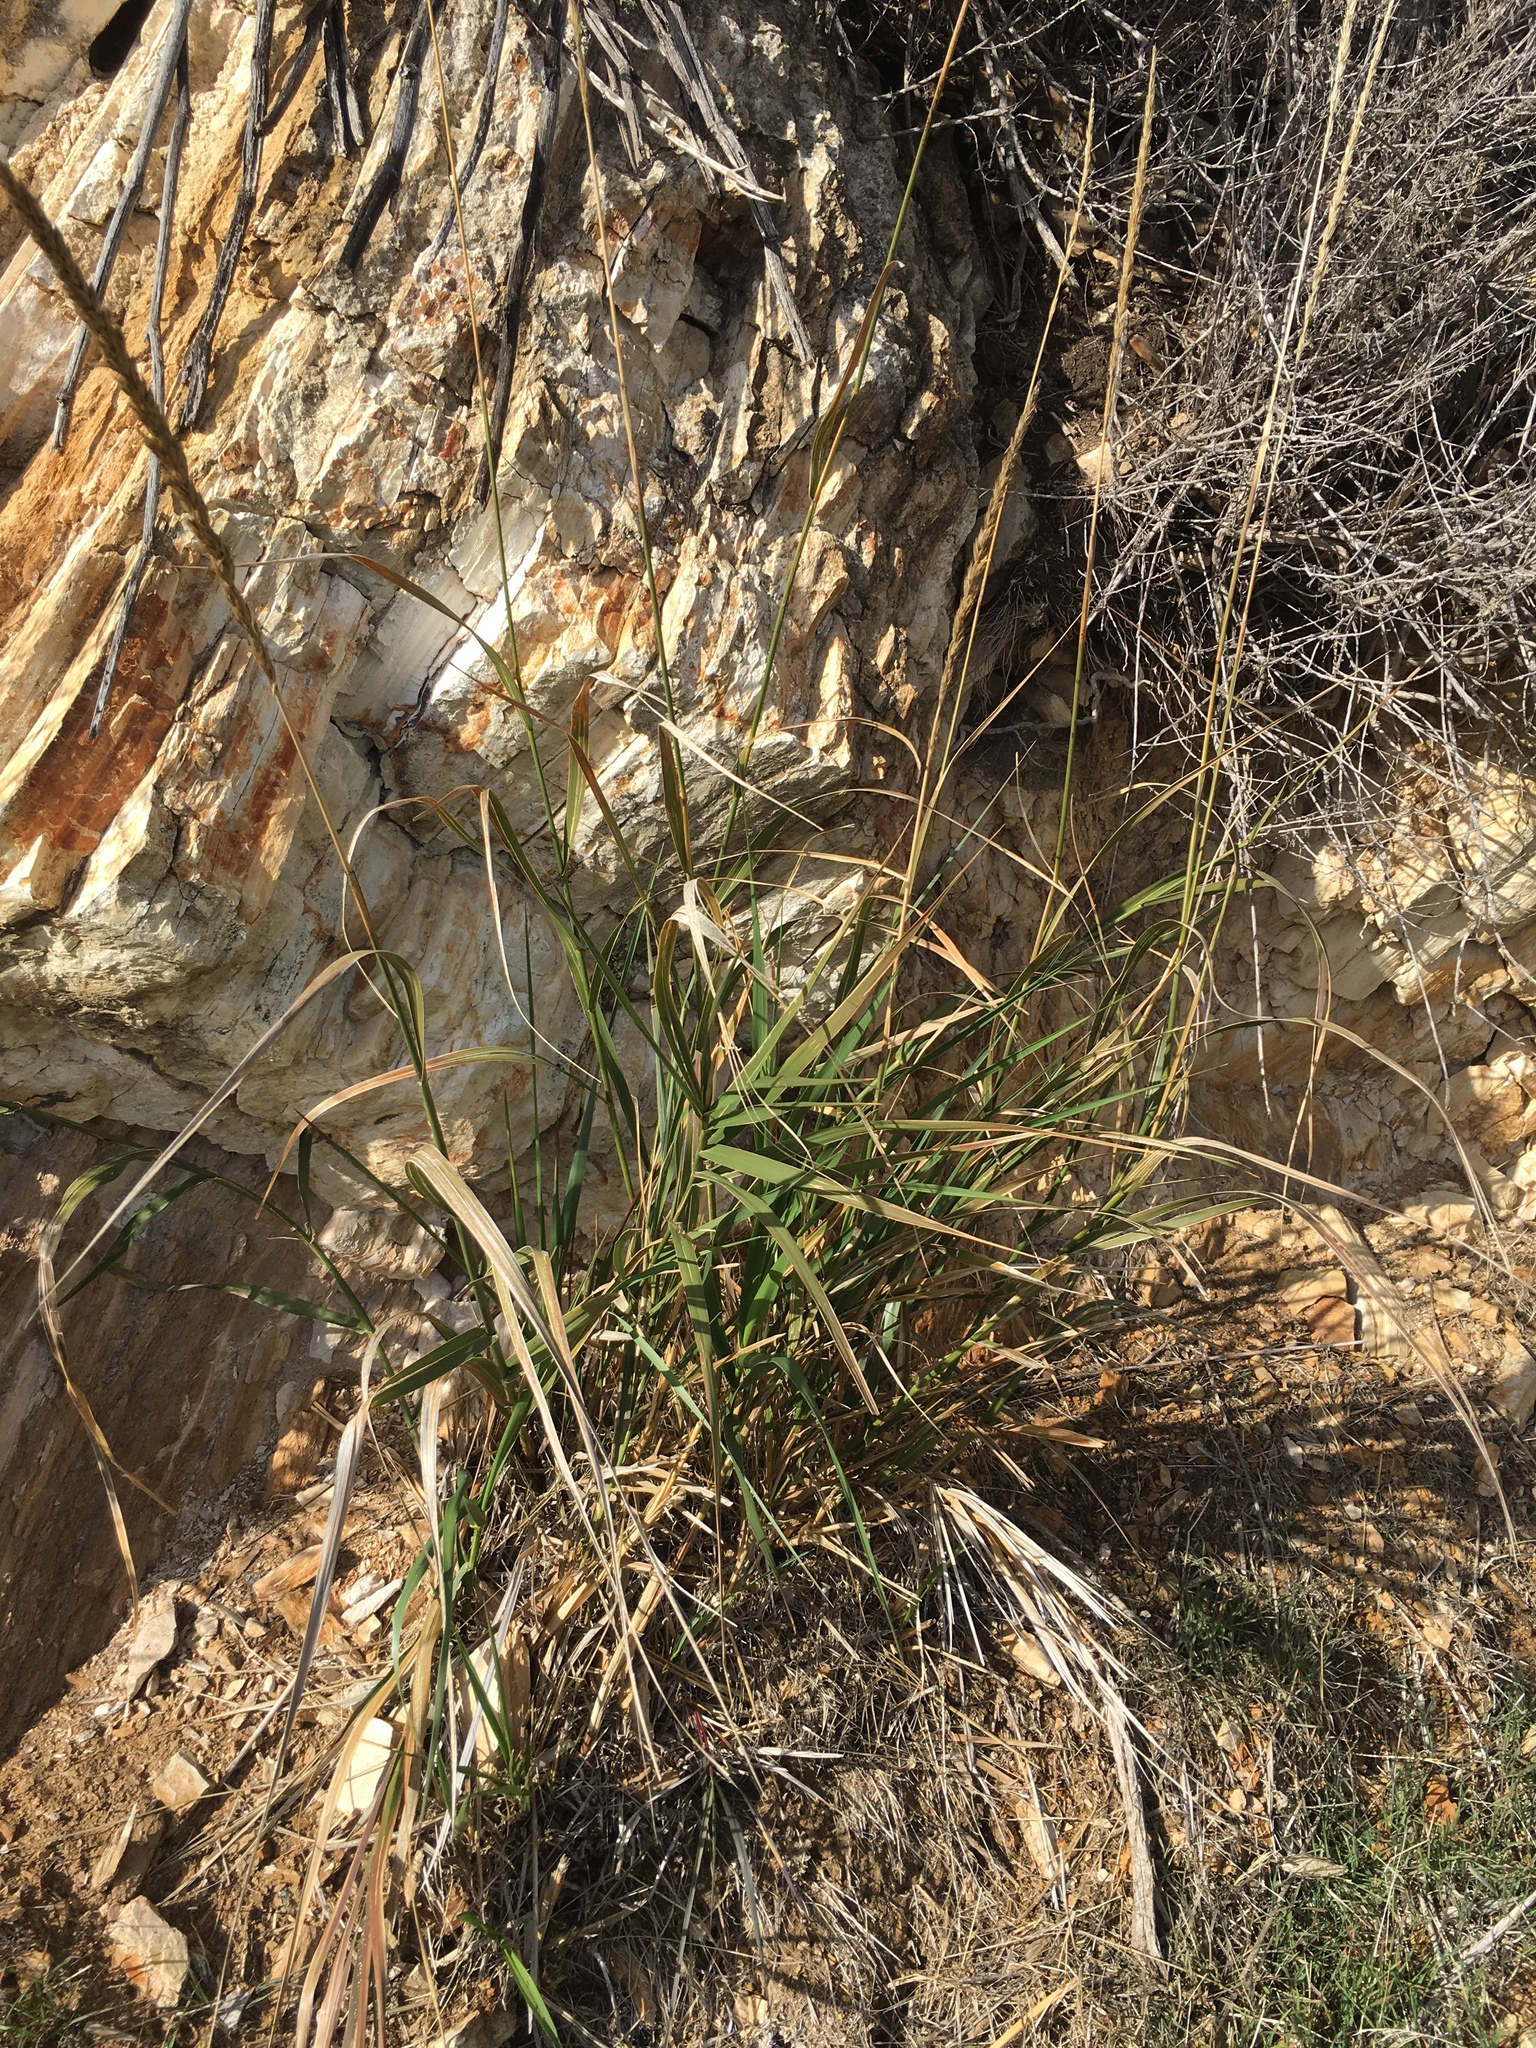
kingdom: Plantae
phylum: Tracheophyta
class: Liliopsida
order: Poales
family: Poaceae
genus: Leymus
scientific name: Leymus condensatus
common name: Giant wild rye
